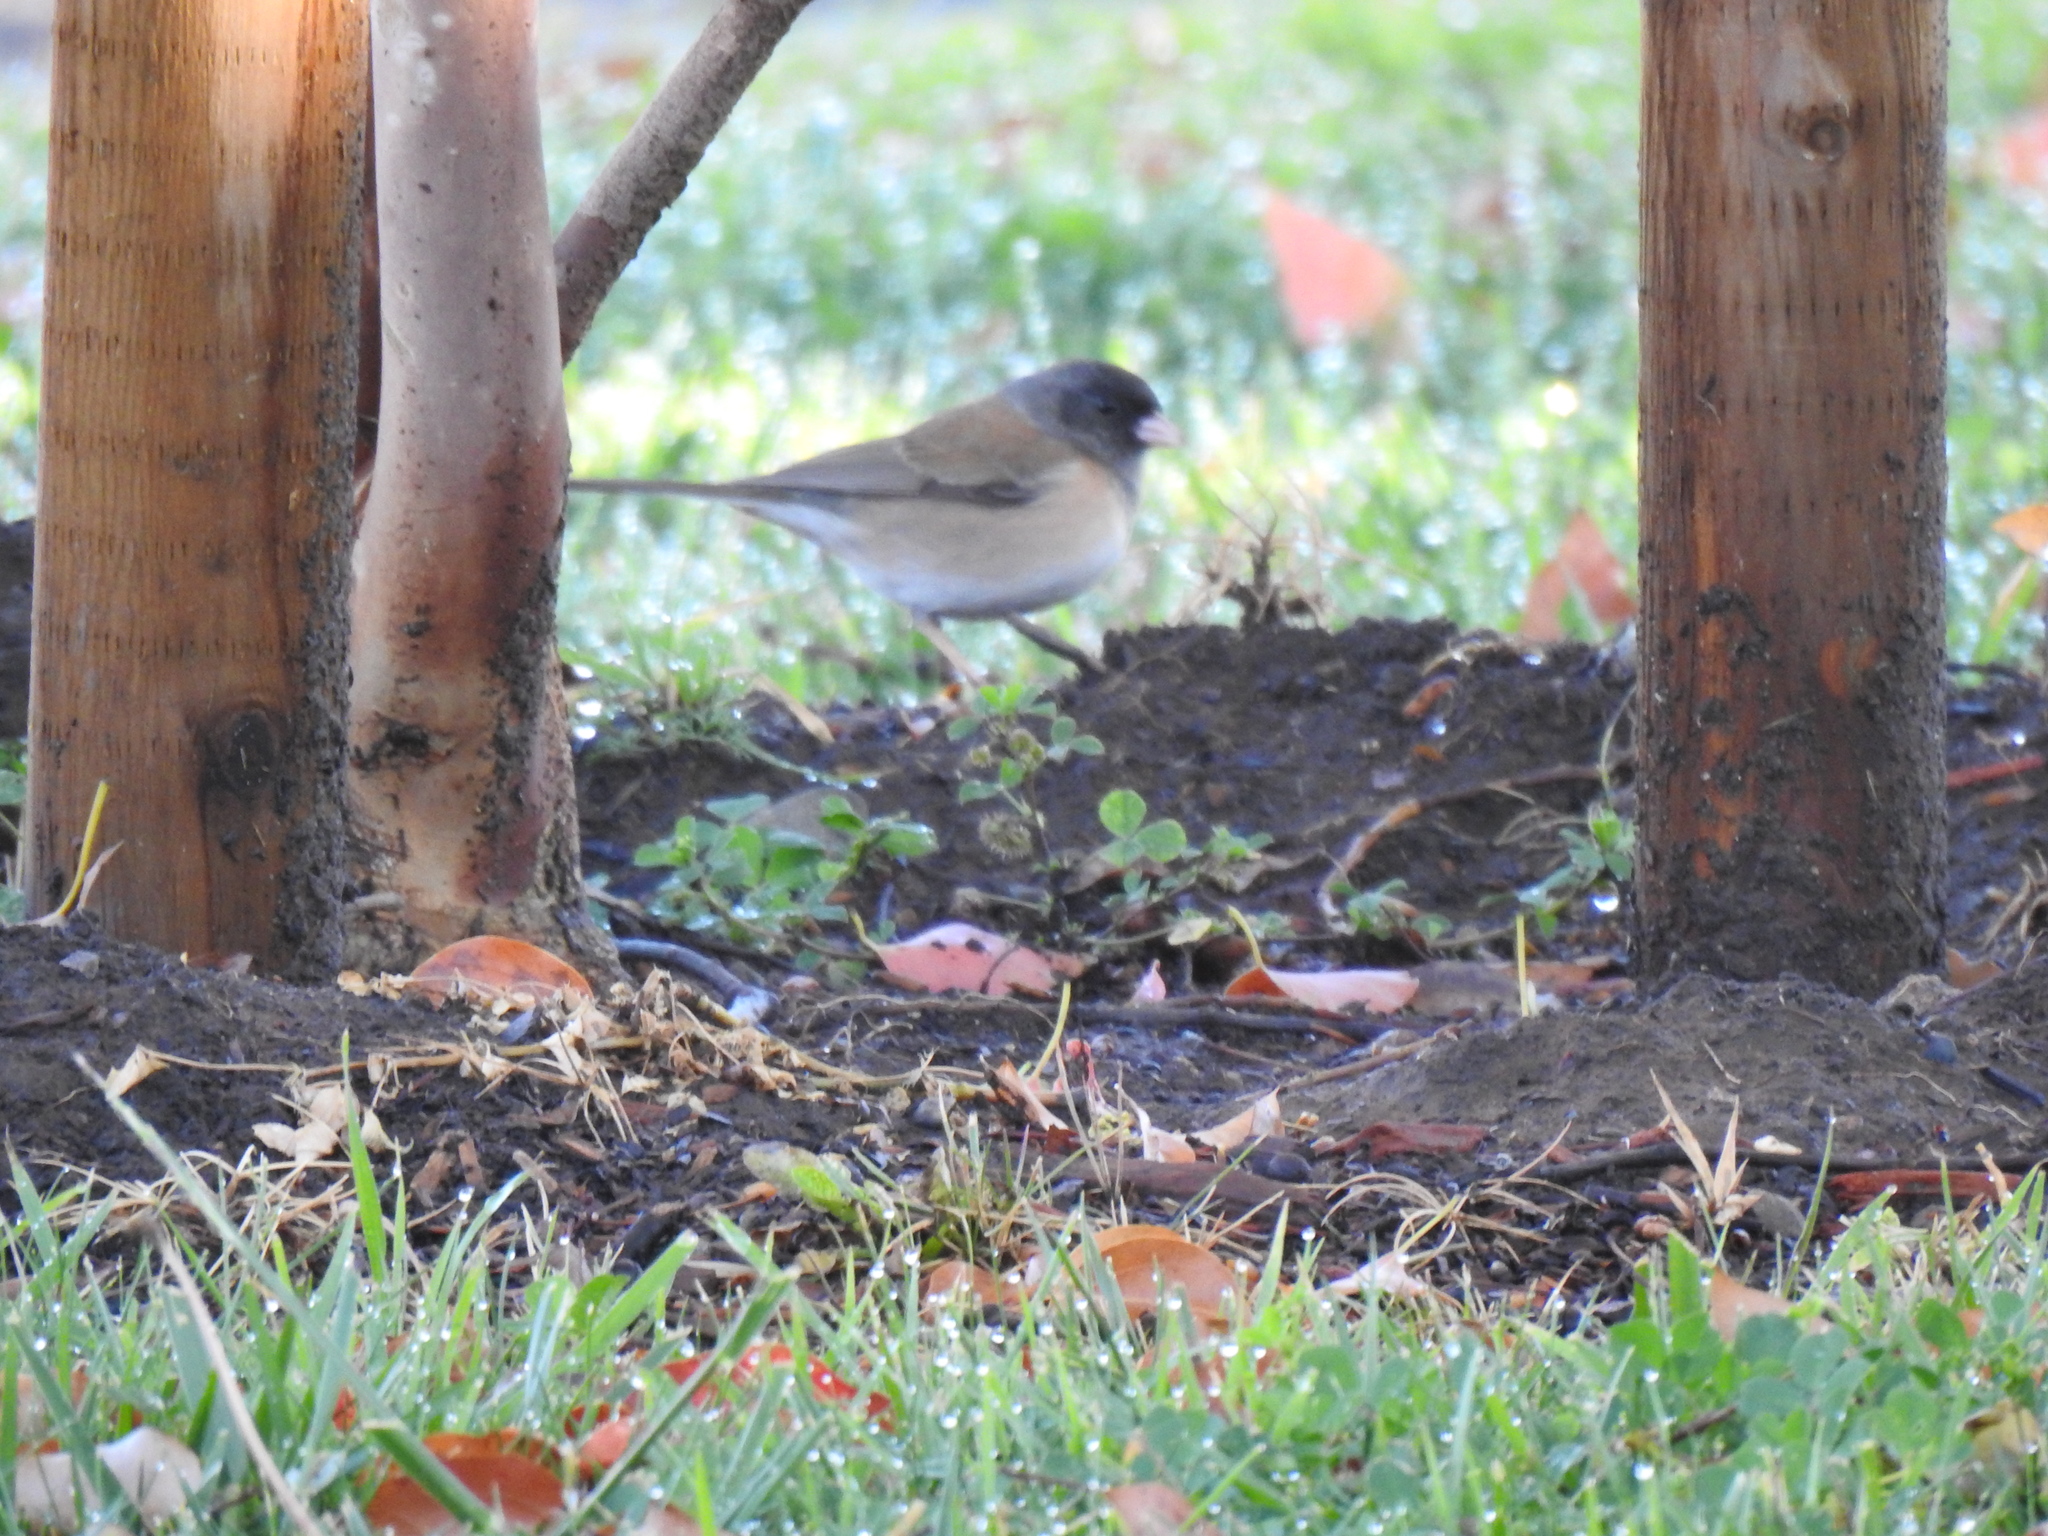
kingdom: Animalia
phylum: Chordata
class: Aves
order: Passeriformes
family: Passerellidae
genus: Junco
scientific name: Junco hyemalis
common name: Dark-eyed junco
